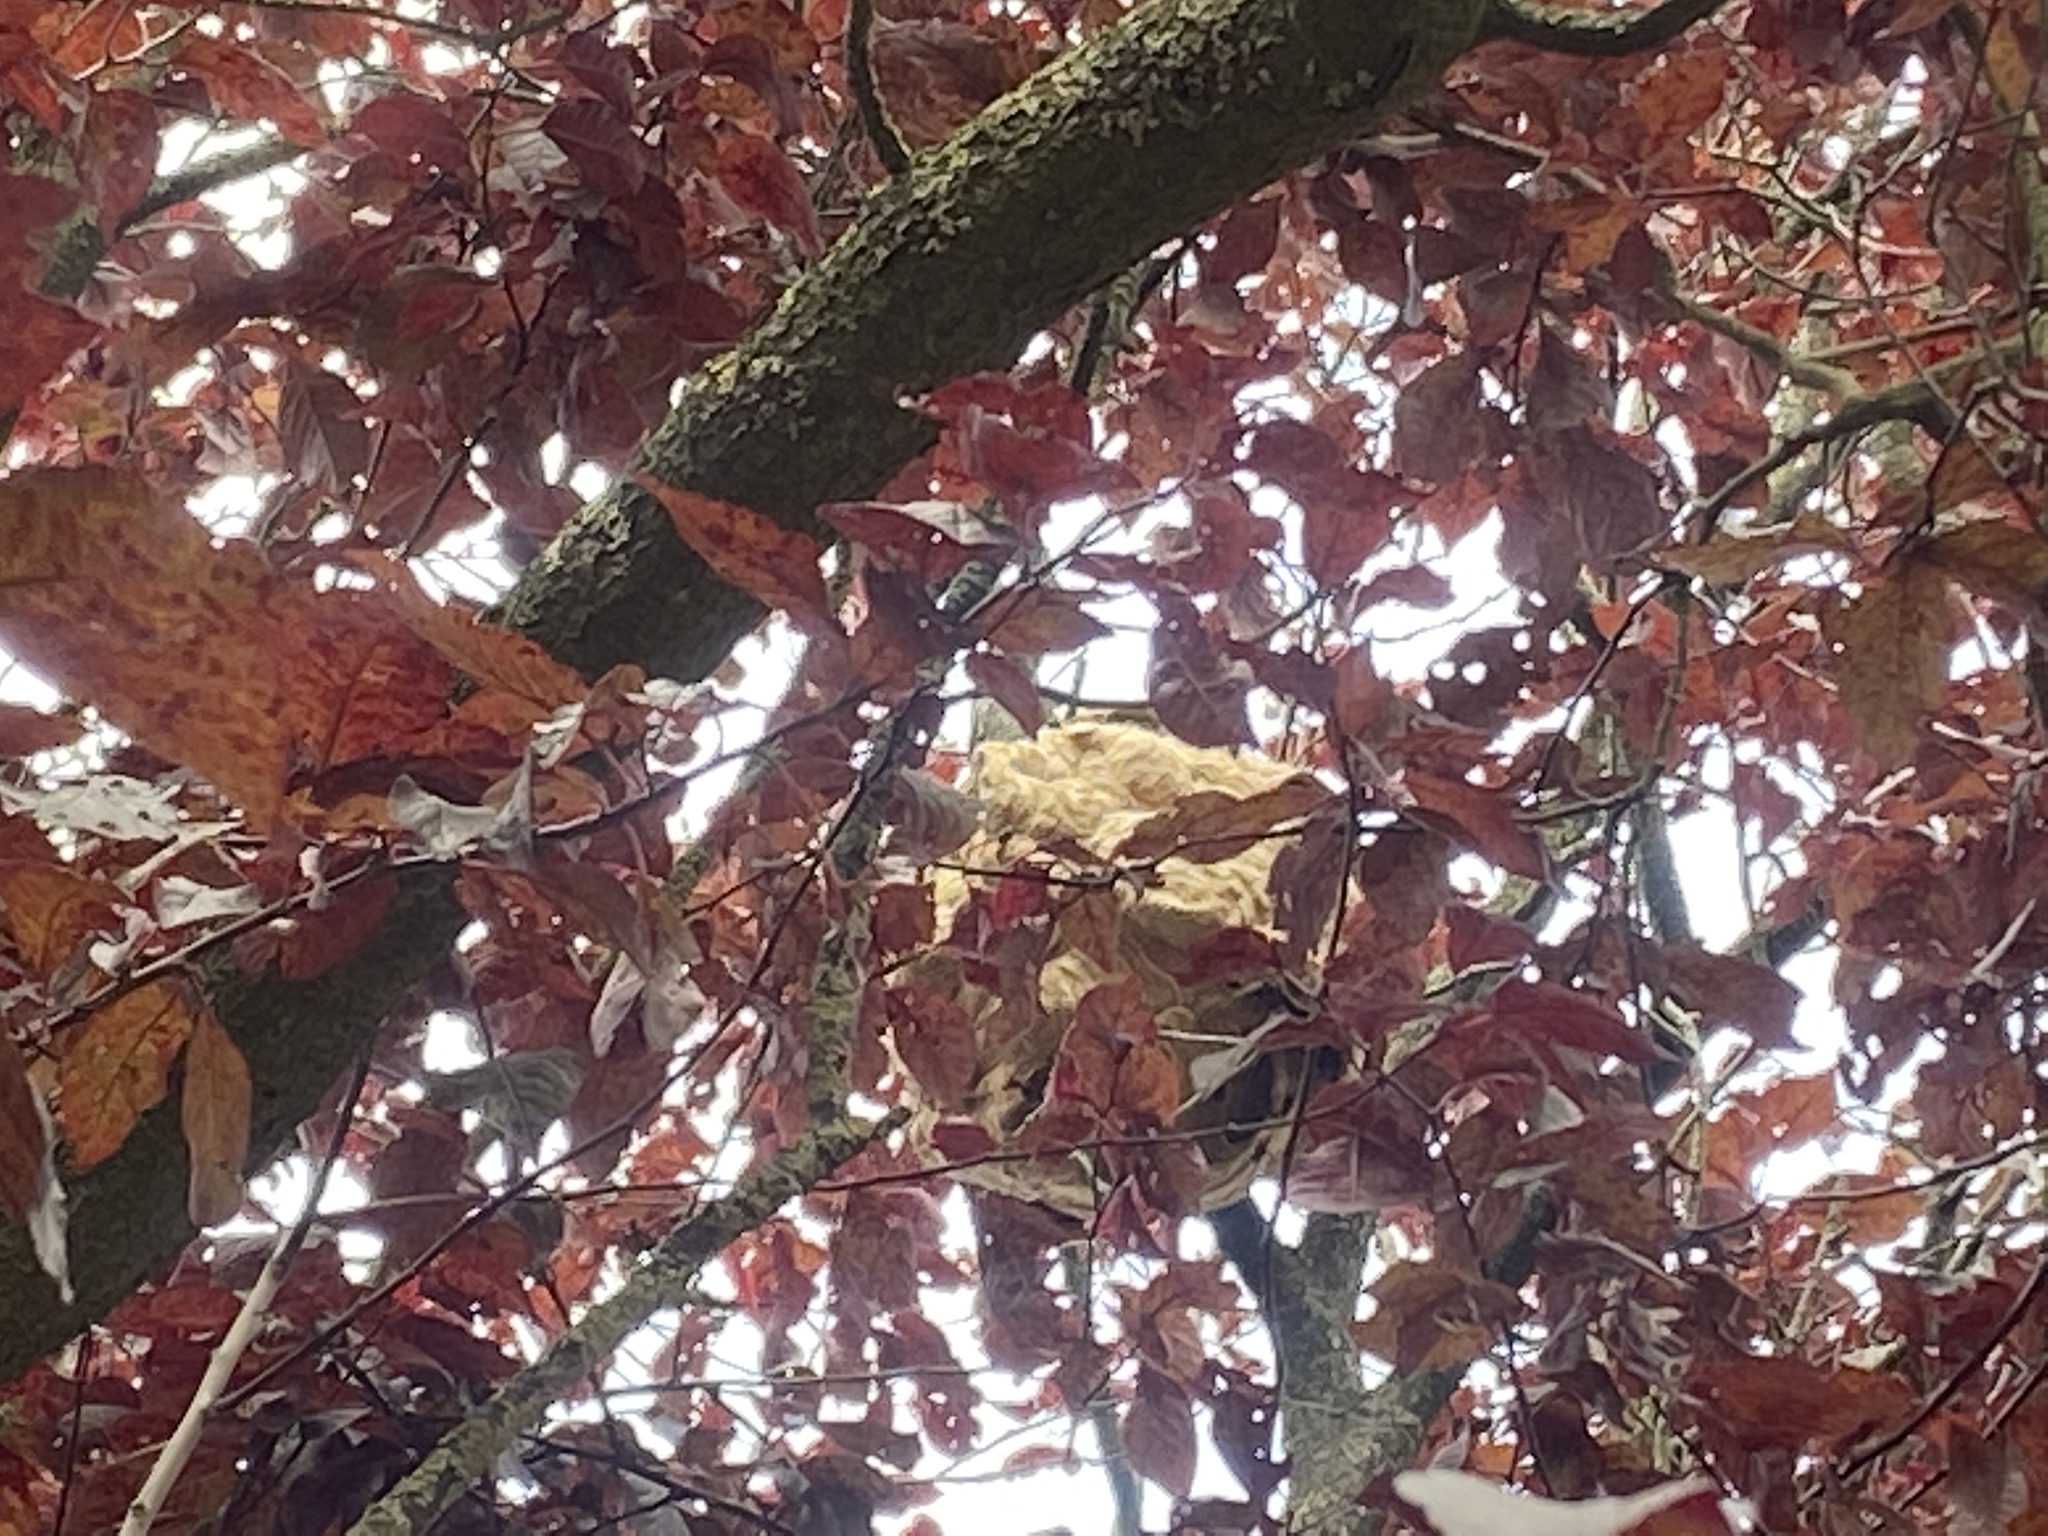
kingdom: Animalia
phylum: Arthropoda
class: Insecta
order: Hymenoptera
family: Vespidae
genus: Vespa
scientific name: Vespa velutina
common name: Asian hornet
